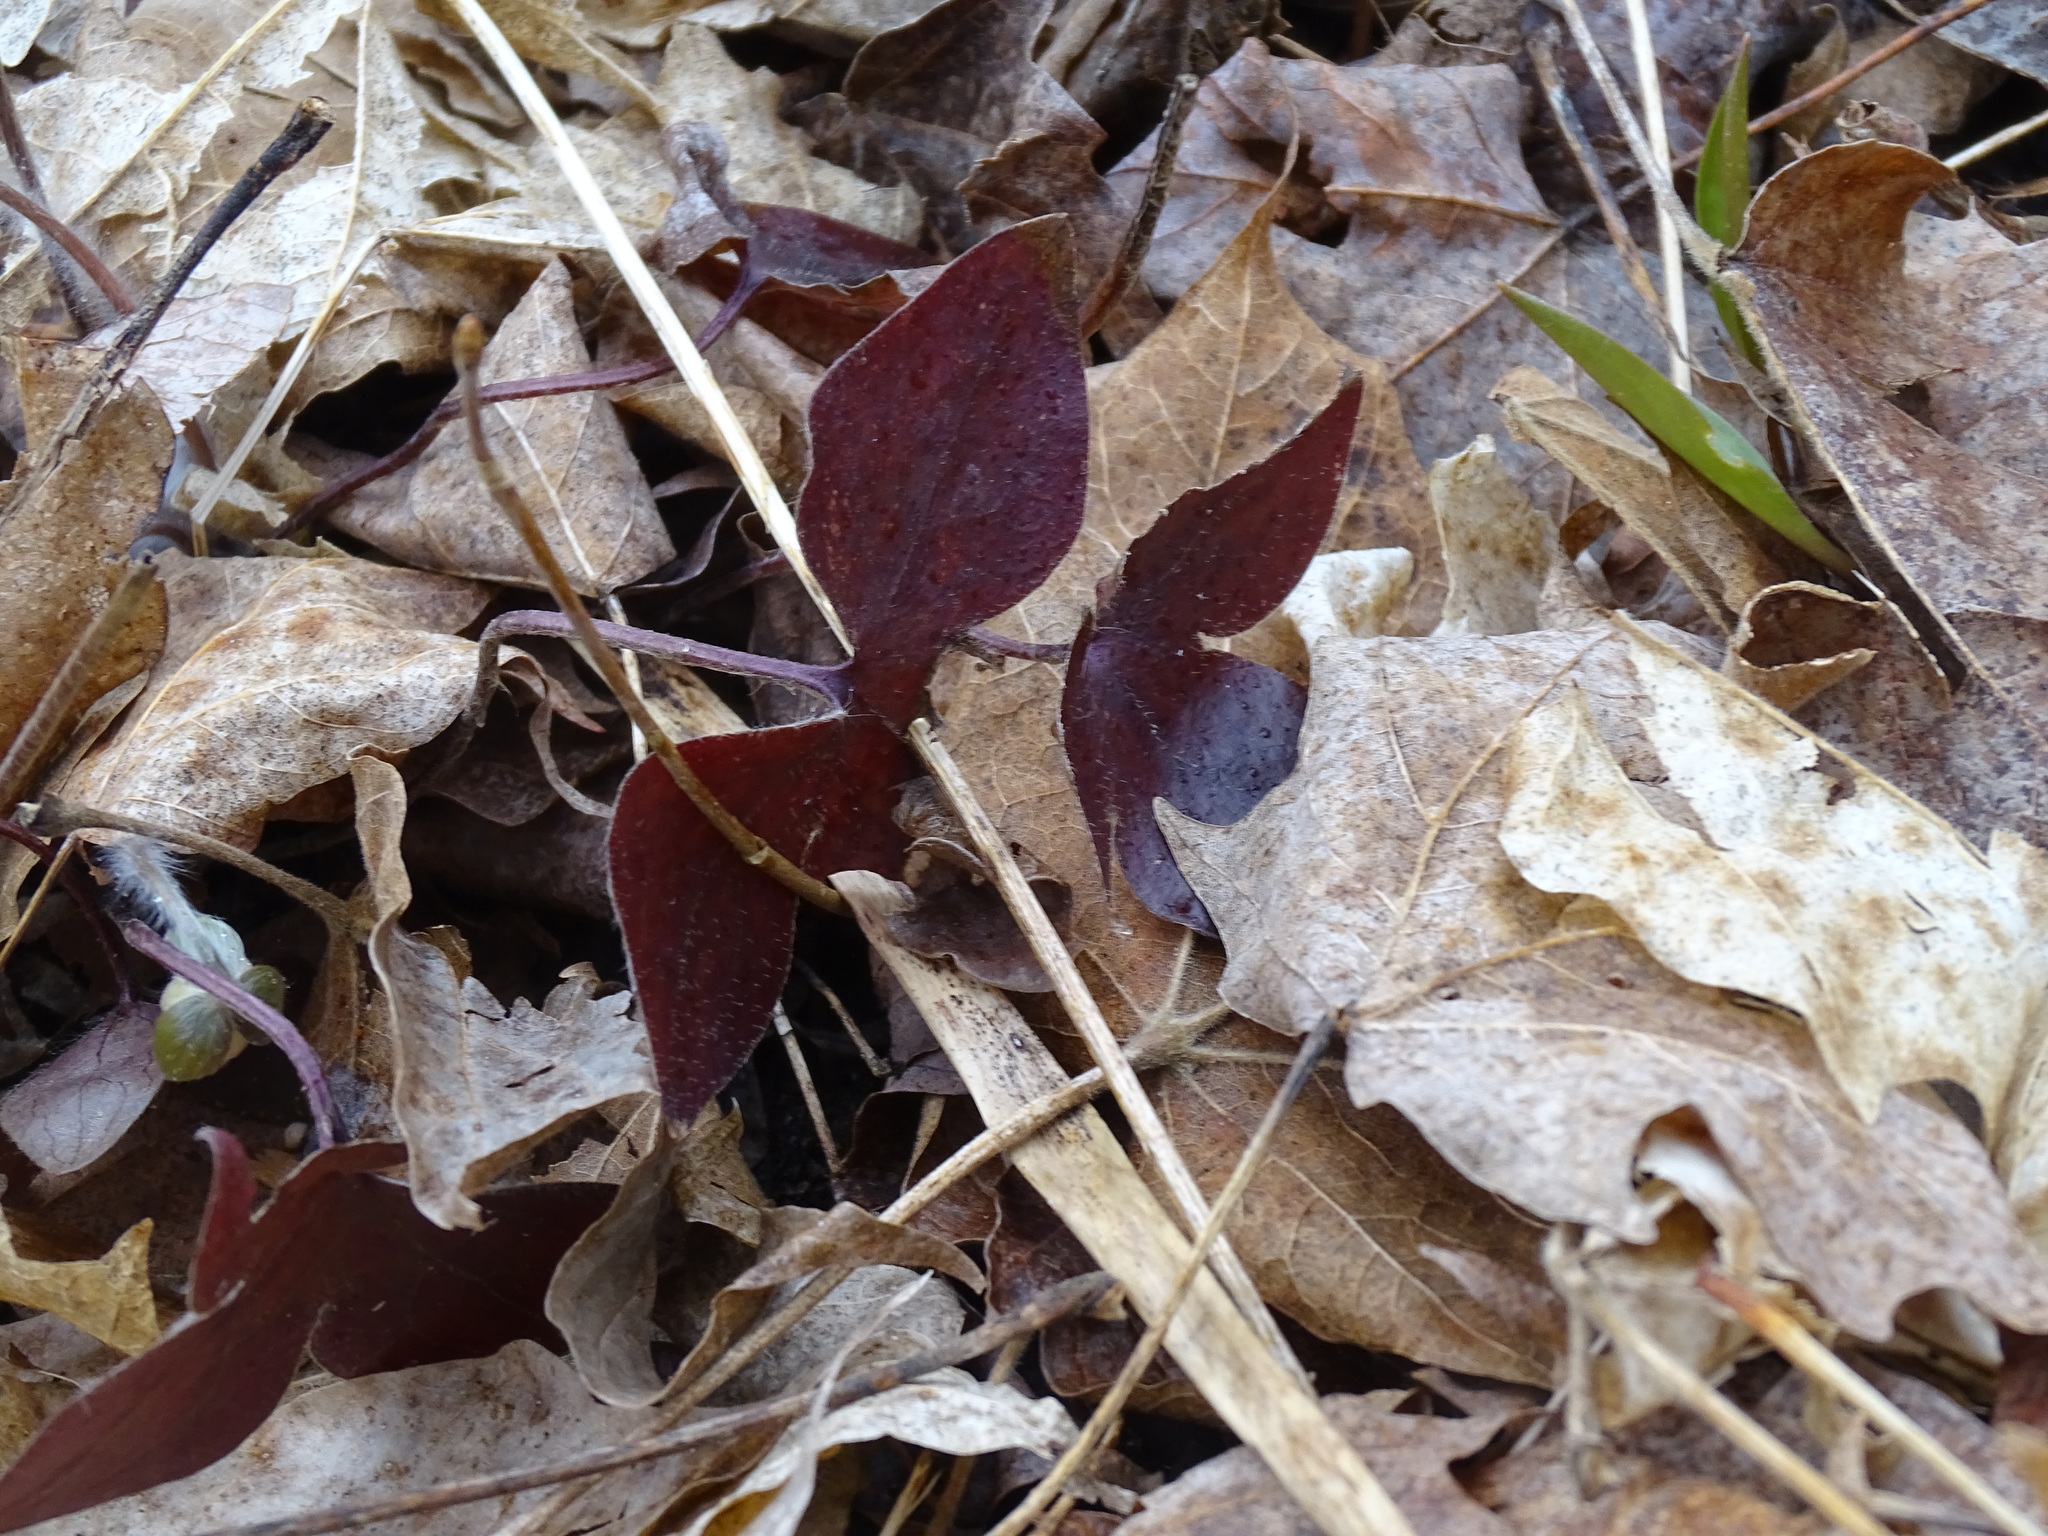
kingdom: Plantae
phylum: Tracheophyta
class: Magnoliopsida
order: Ranunculales
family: Ranunculaceae
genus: Hepatica
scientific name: Hepatica acutiloba
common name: Sharp-lobed hepatica
